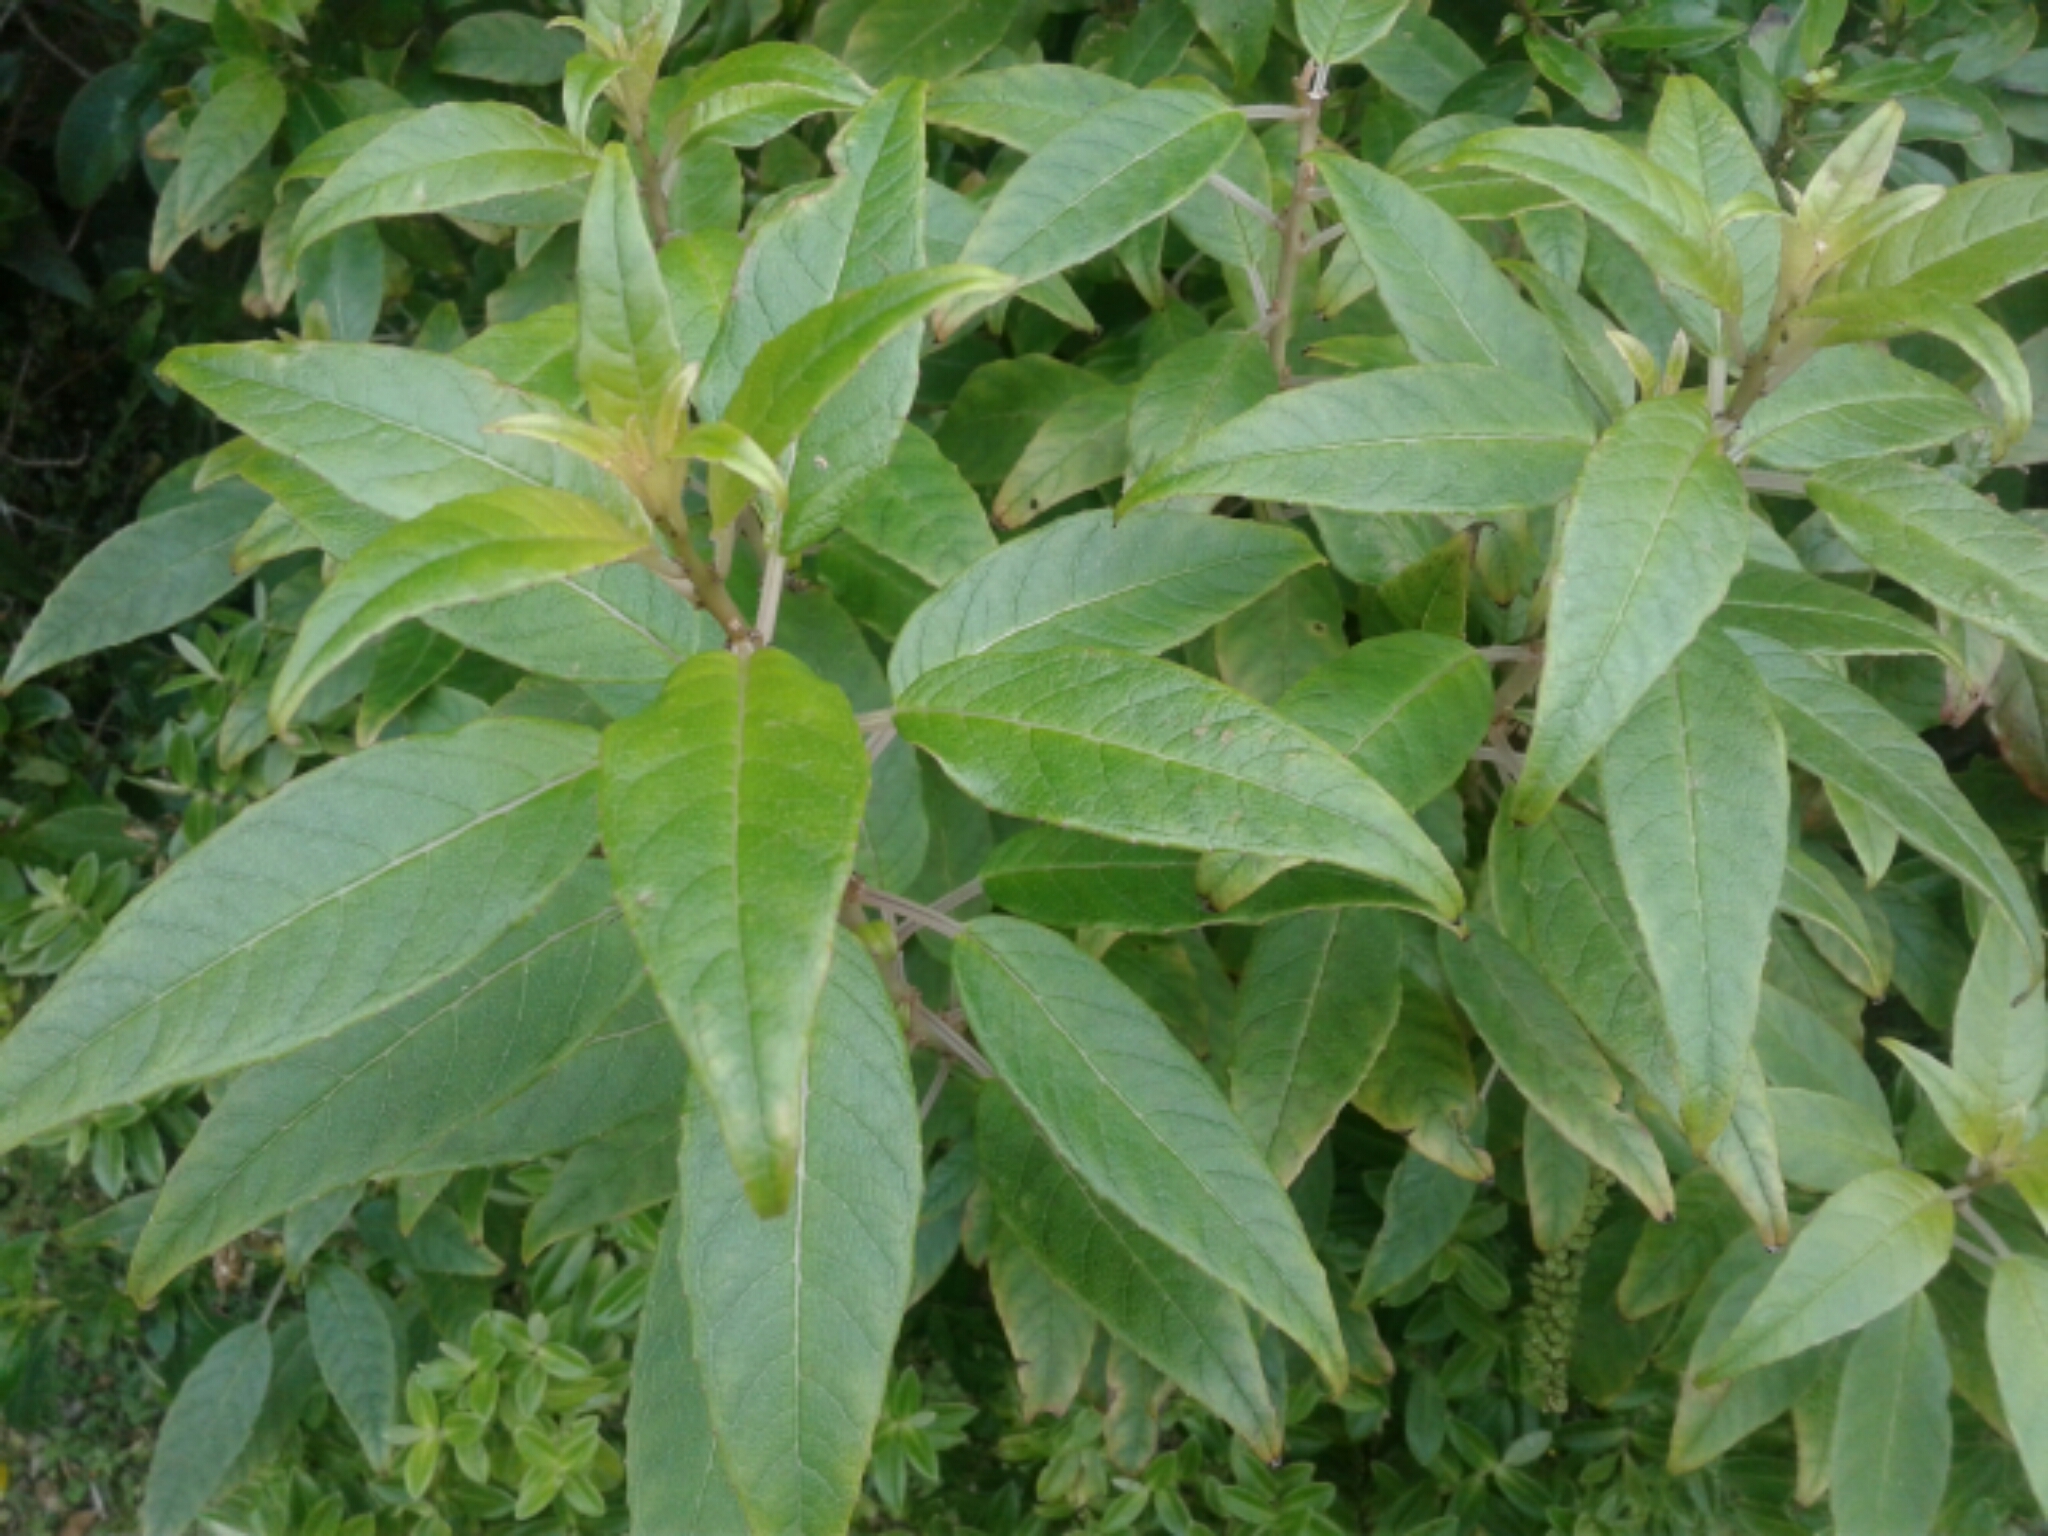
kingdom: Plantae
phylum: Tracheophyta
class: Magnoliopsida
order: Myrtales
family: Onagraceae
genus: Fuchsia
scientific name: Fuchsia excorticata
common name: Tree fuchsia
